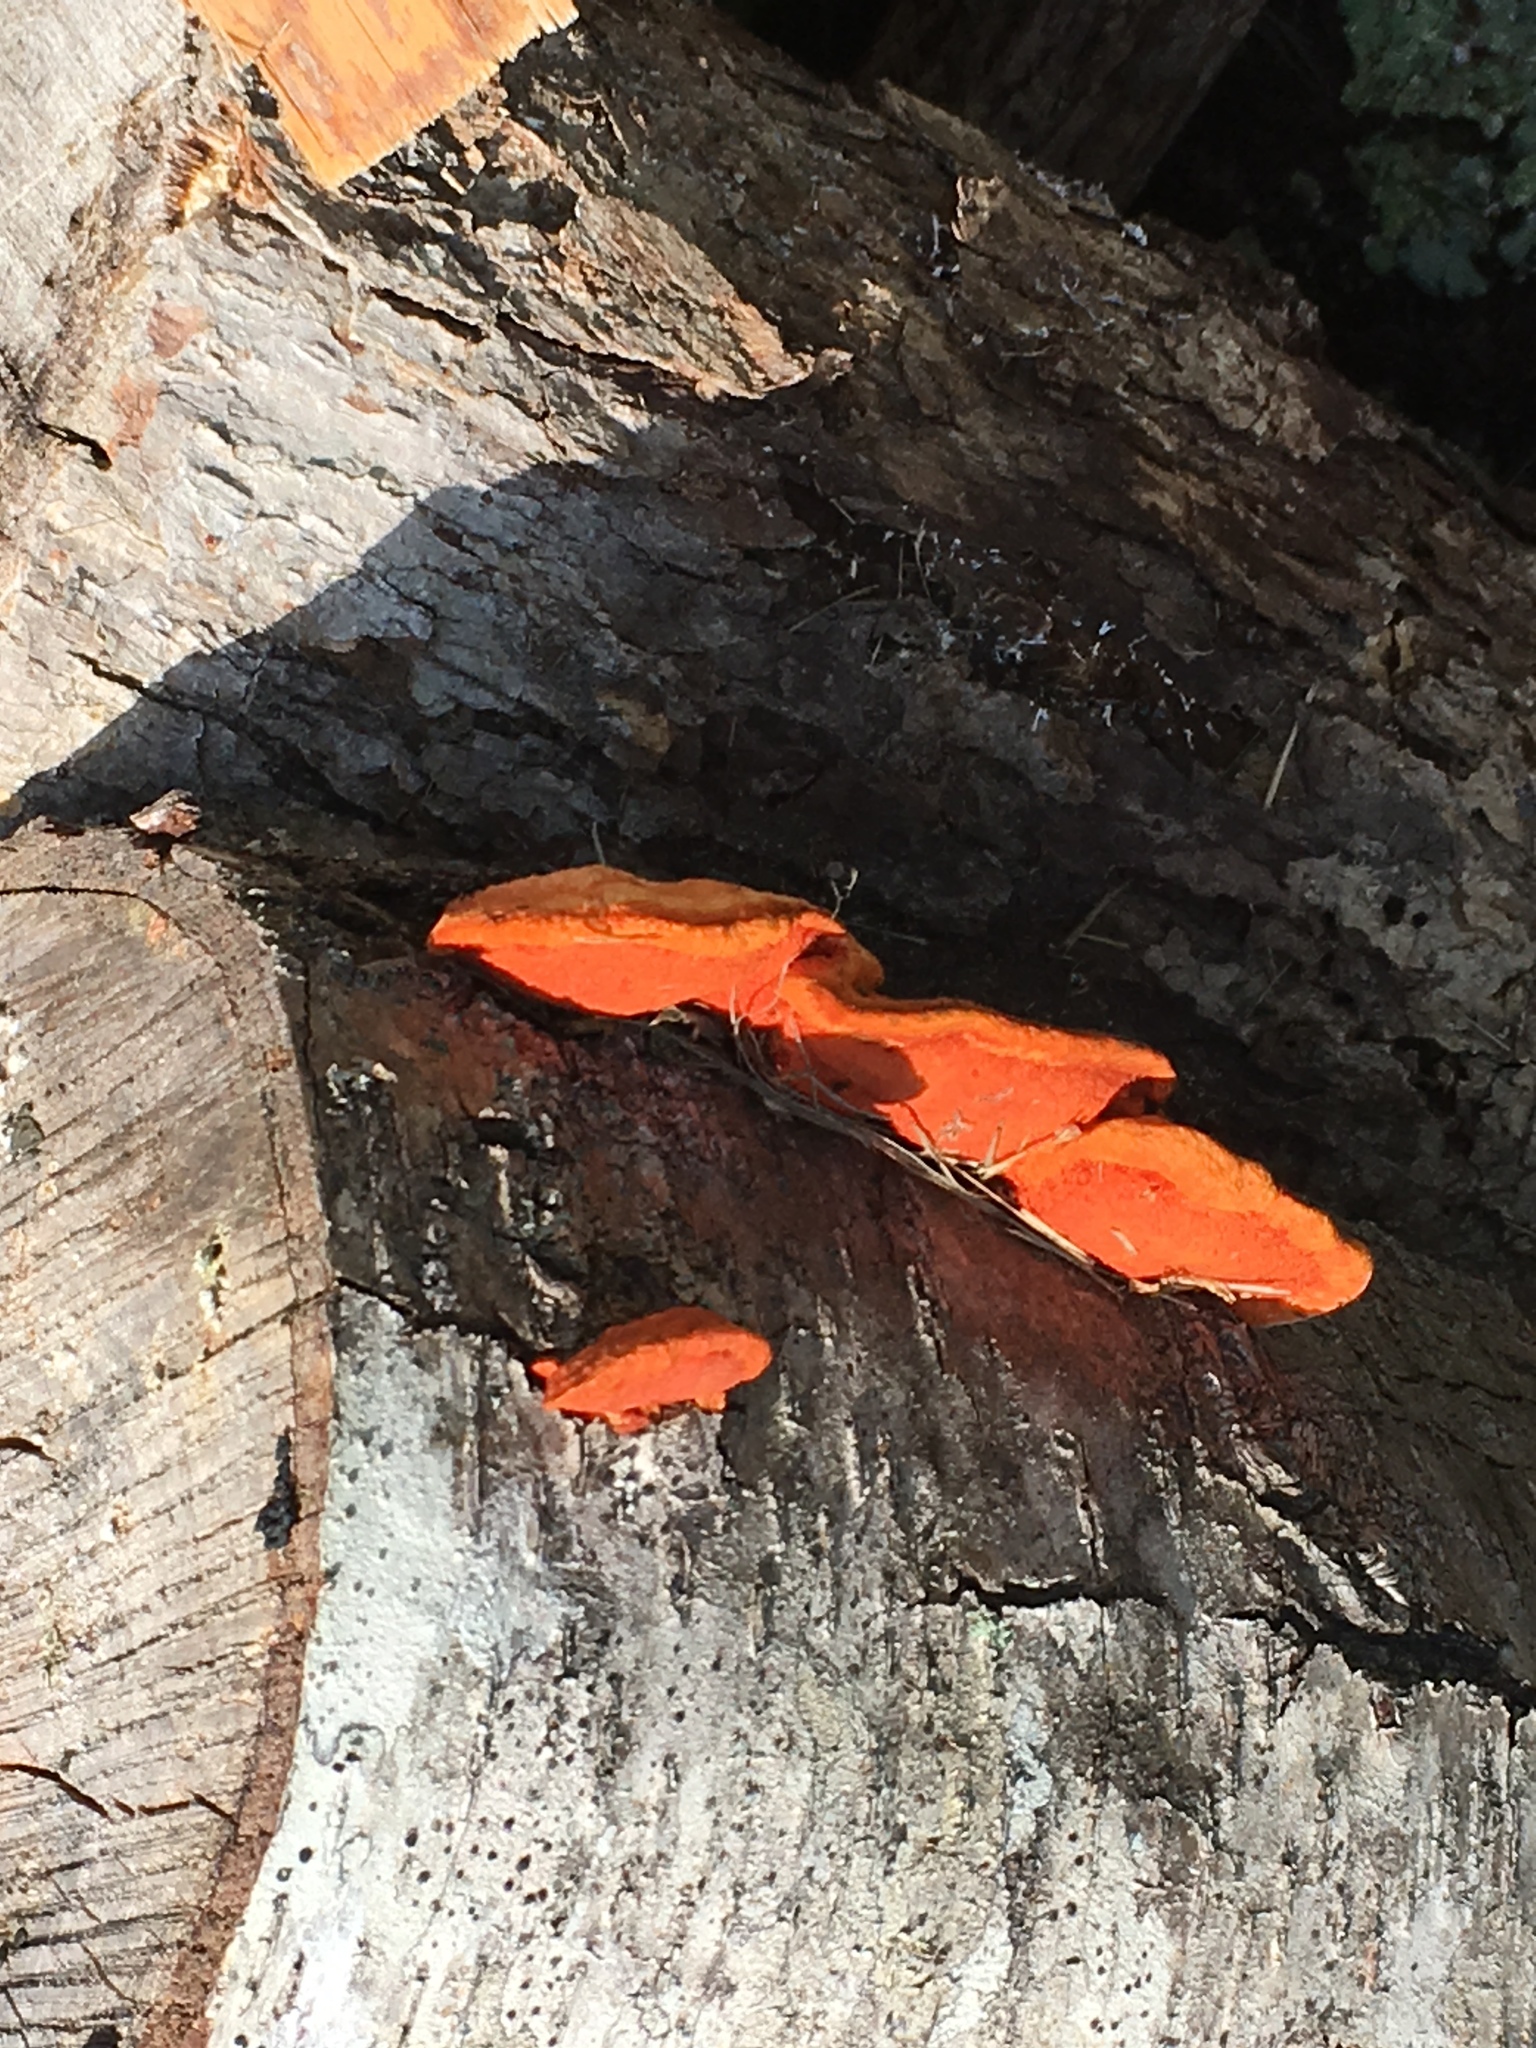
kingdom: Fungi
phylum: Basidiomycota
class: Agaricomycetes
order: Polyporales
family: Polyporaceae
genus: Trametes
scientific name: Trametes cinnabarina
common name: Northern cinnabar polypore
